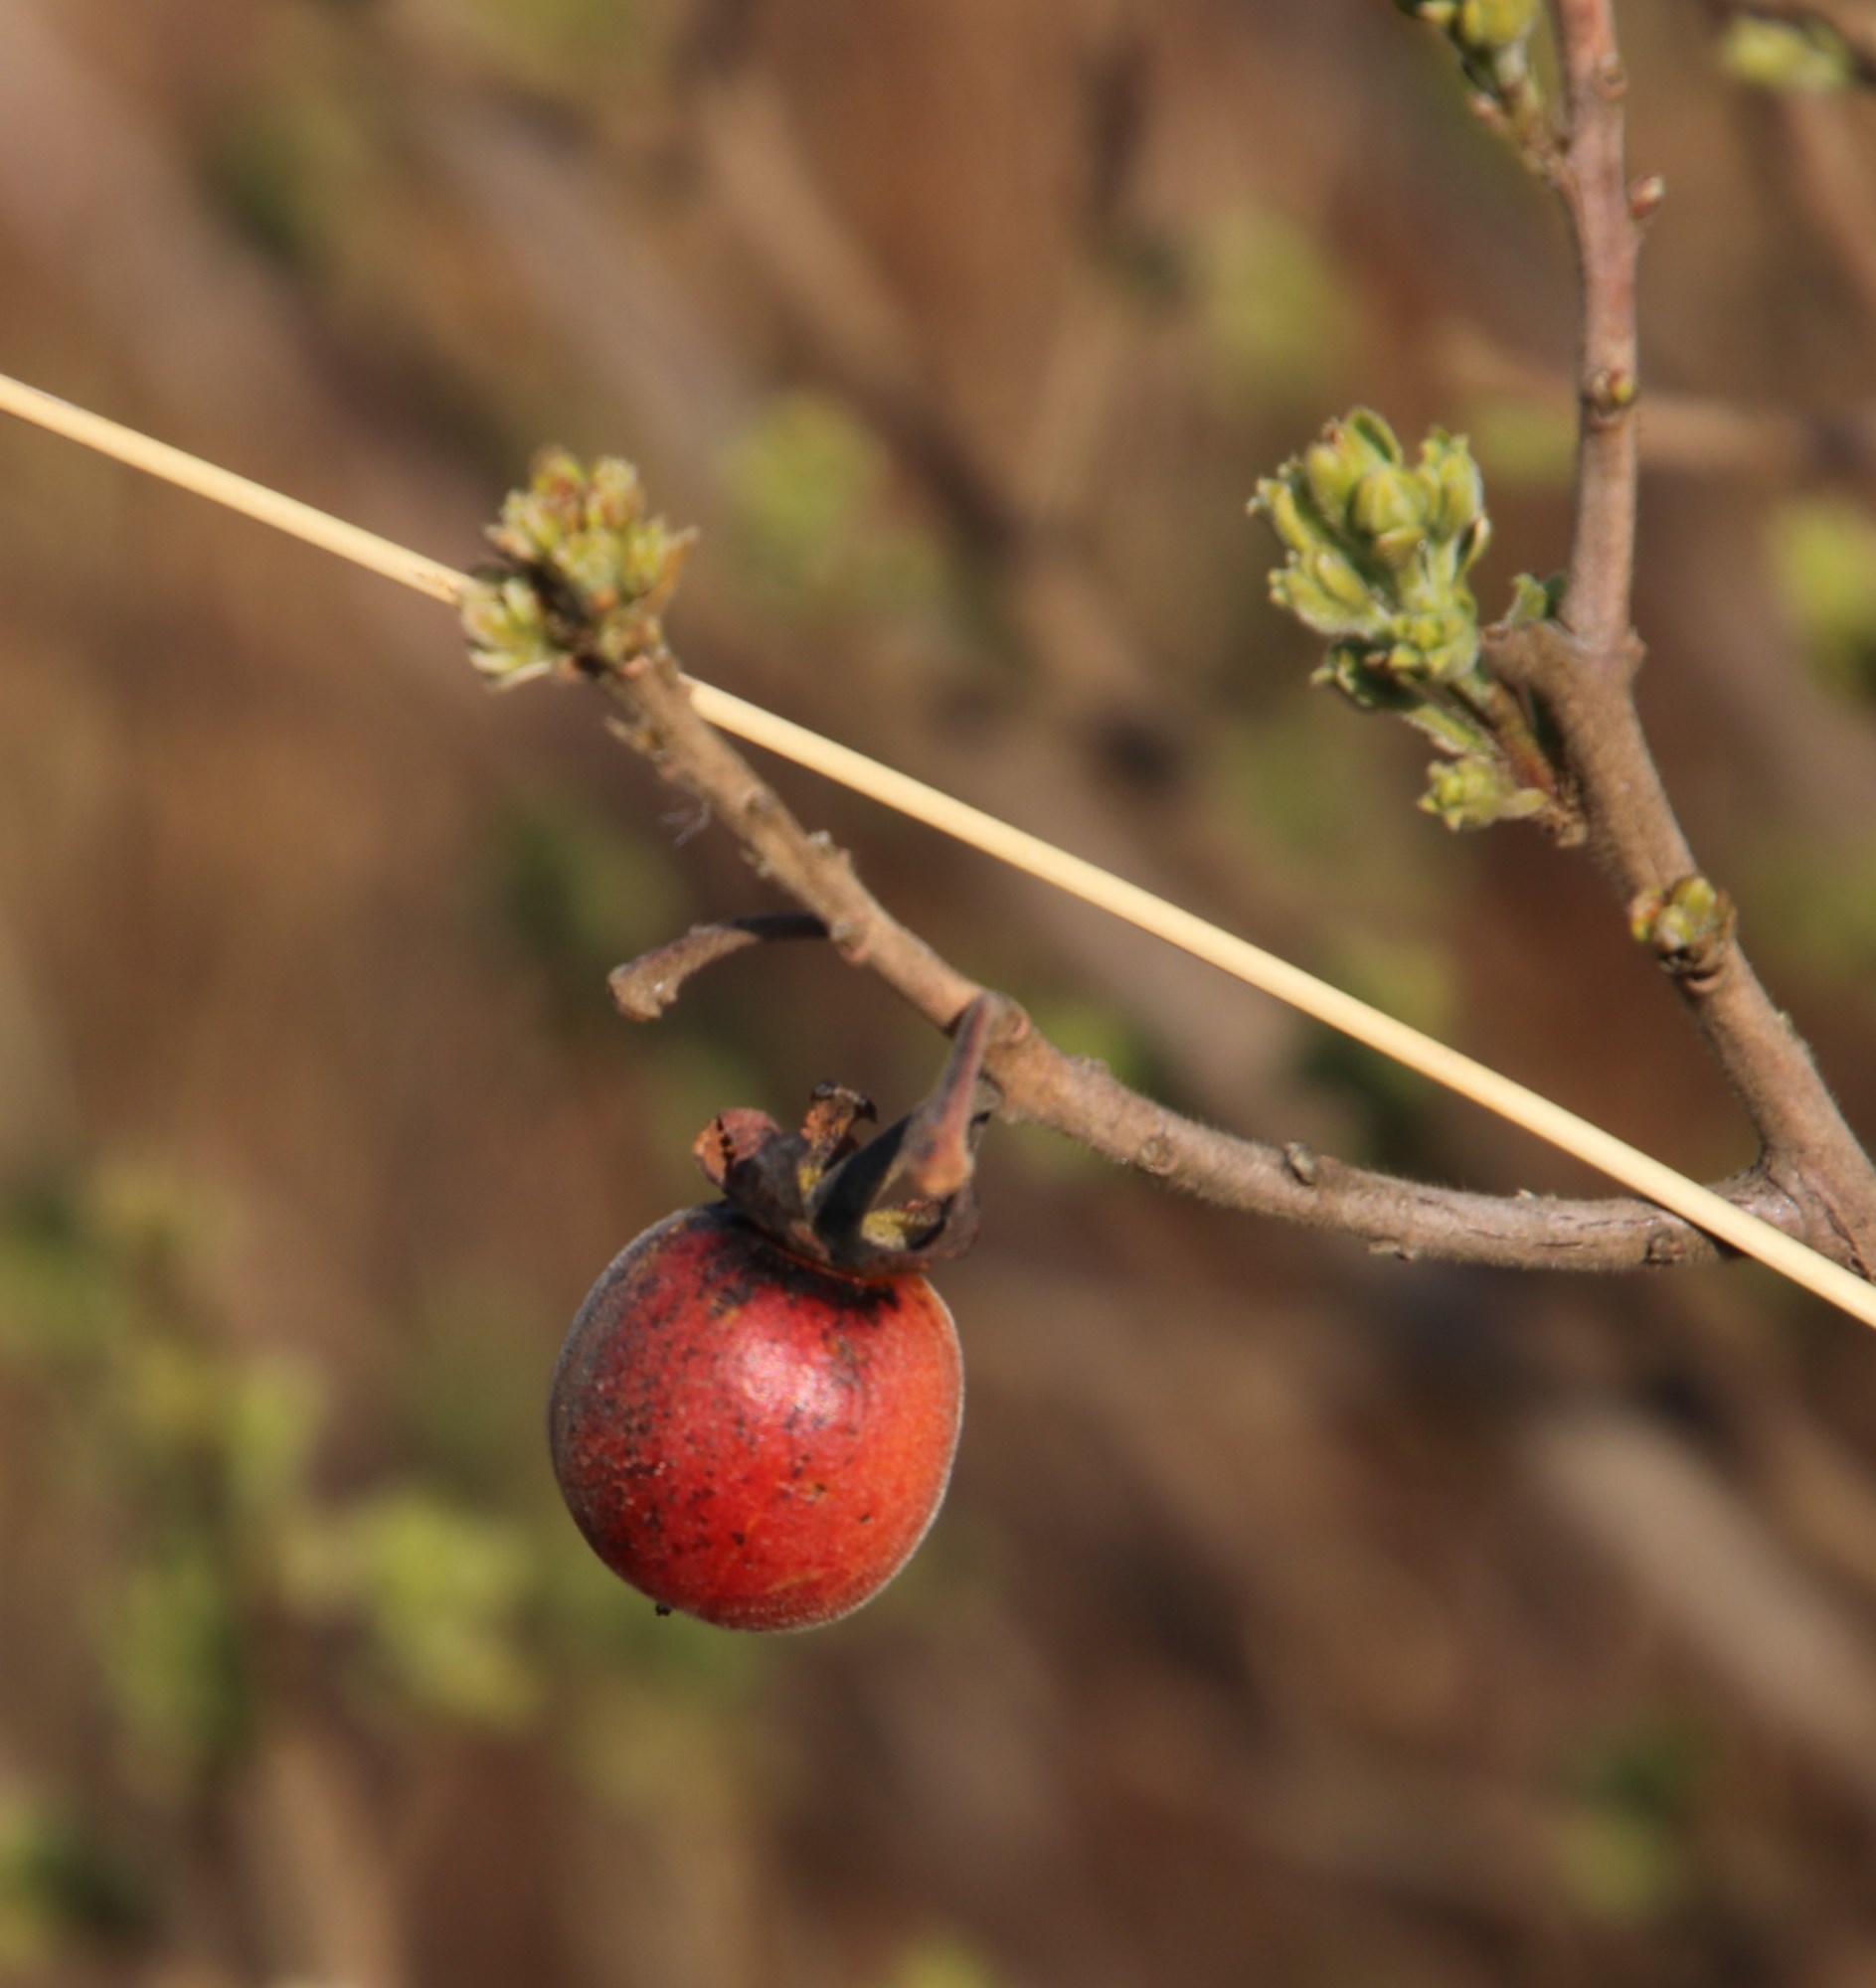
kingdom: Plantae
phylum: Tracheophyta
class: Magnoliopsida
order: Ericales
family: Ebenaceae
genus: Diospyros
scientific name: Diospyros lycioides
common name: Red star apple
